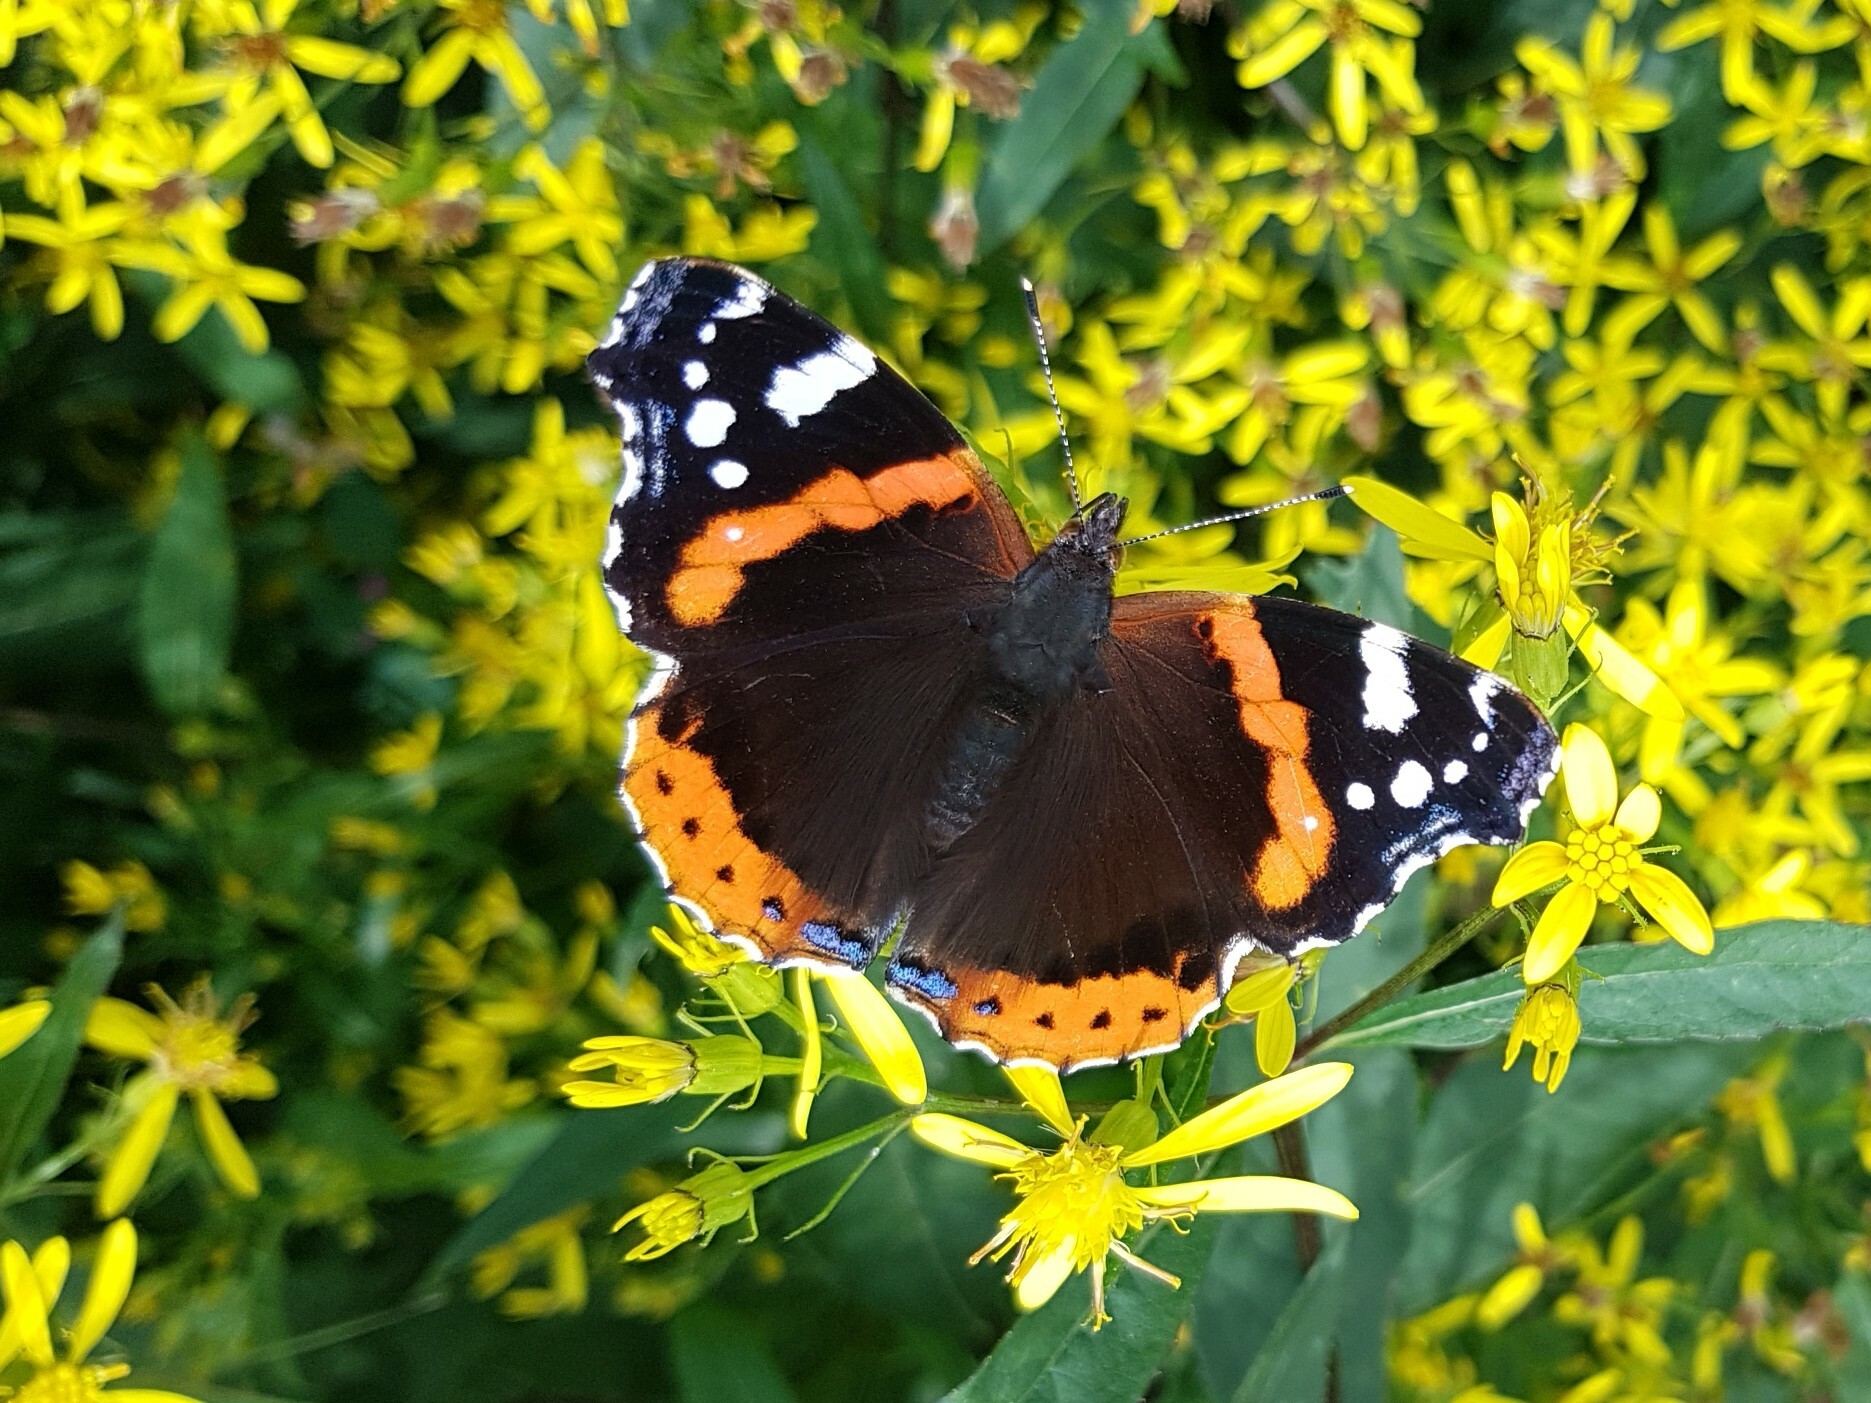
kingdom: Animalia
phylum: Arthropoda
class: Insecta
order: Lepidoptera
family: Nymphalidae
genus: Vanessa
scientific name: Vanessa atalanta
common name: Red admiral
